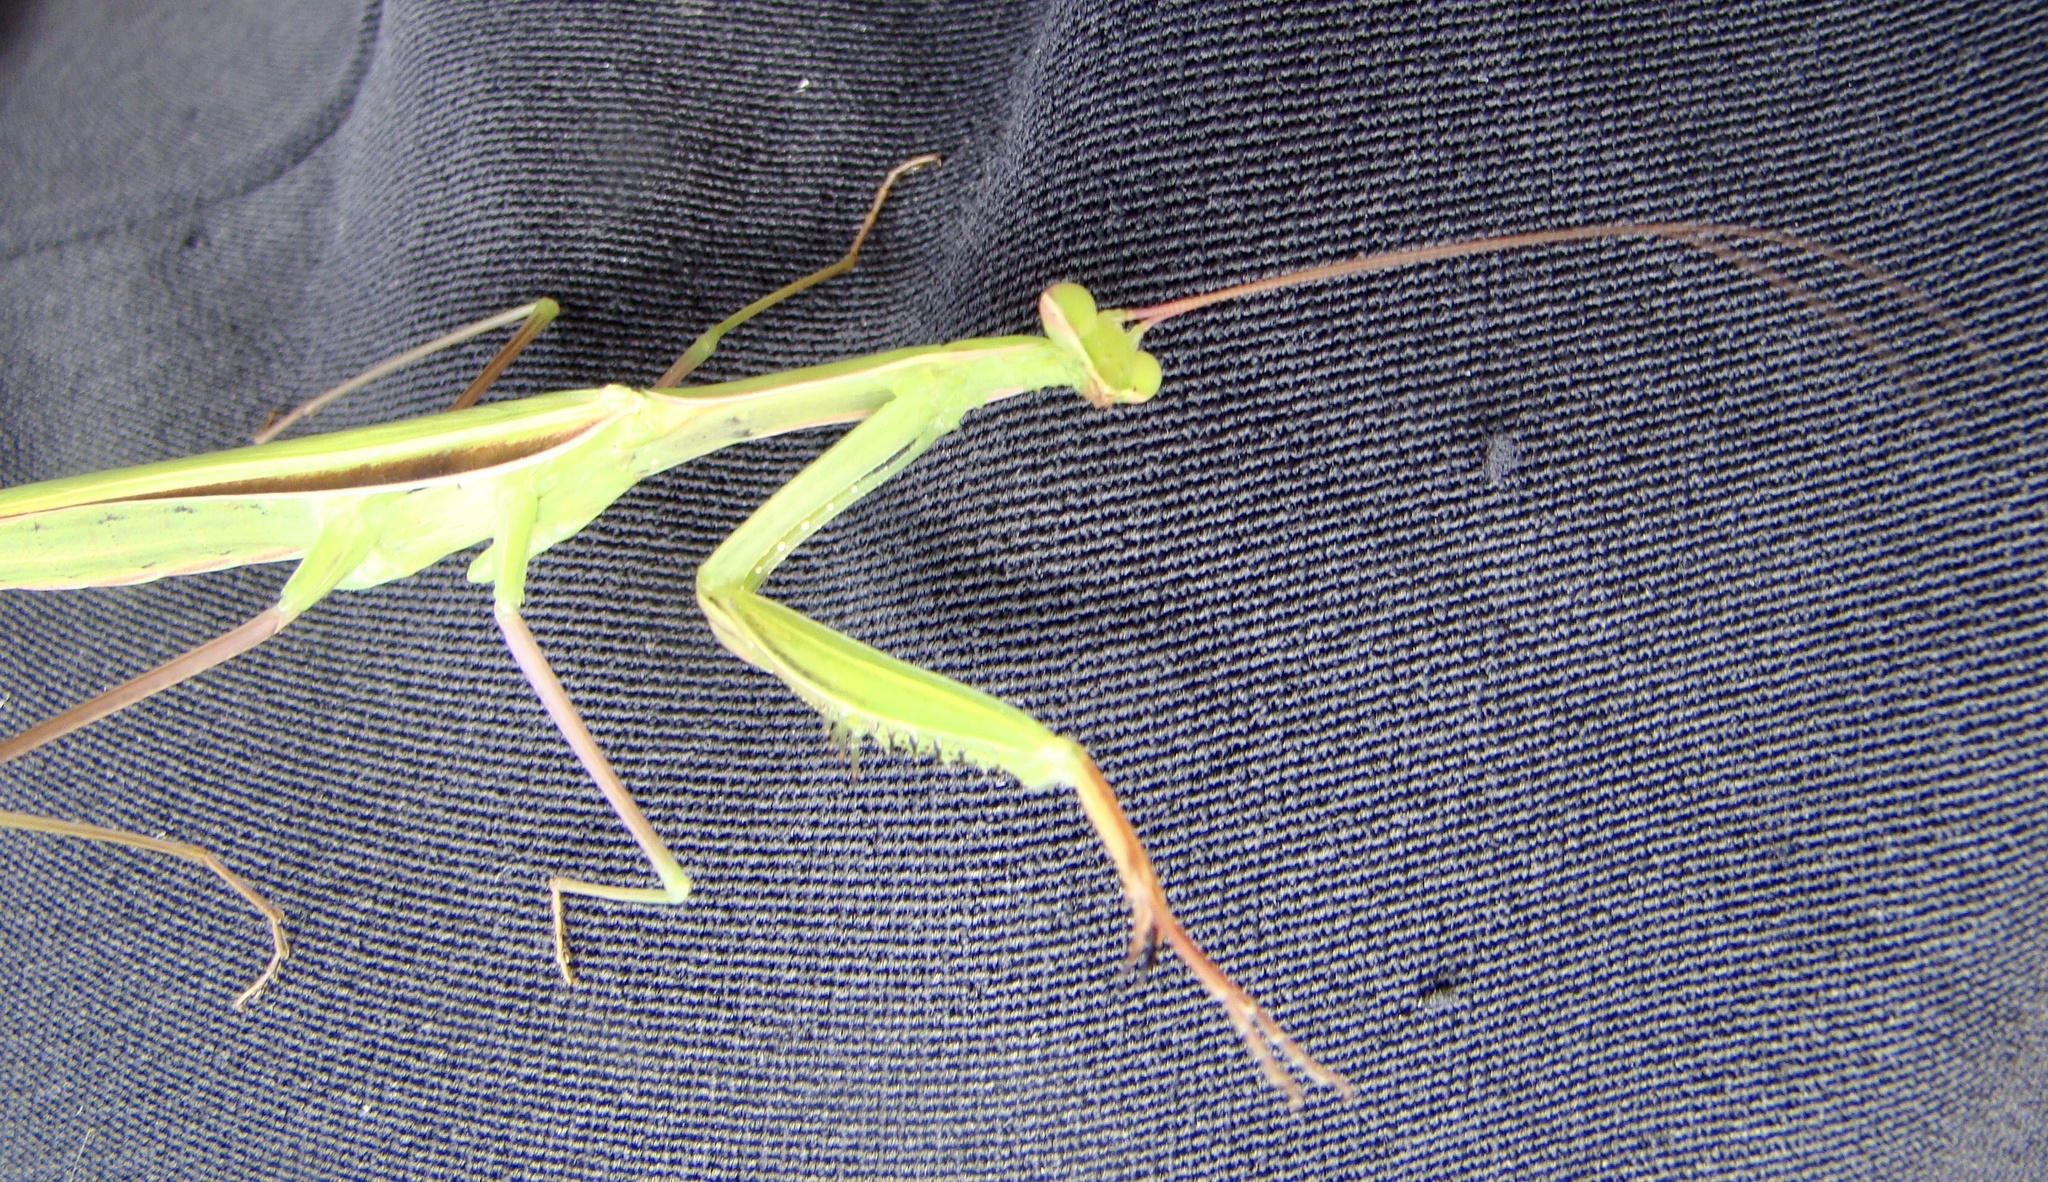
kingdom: Animalia
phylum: Arthropoda
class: Insecta
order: Mantodea
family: Mantidae
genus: Mantis
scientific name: Mantis religiosa
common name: Praying mantis
